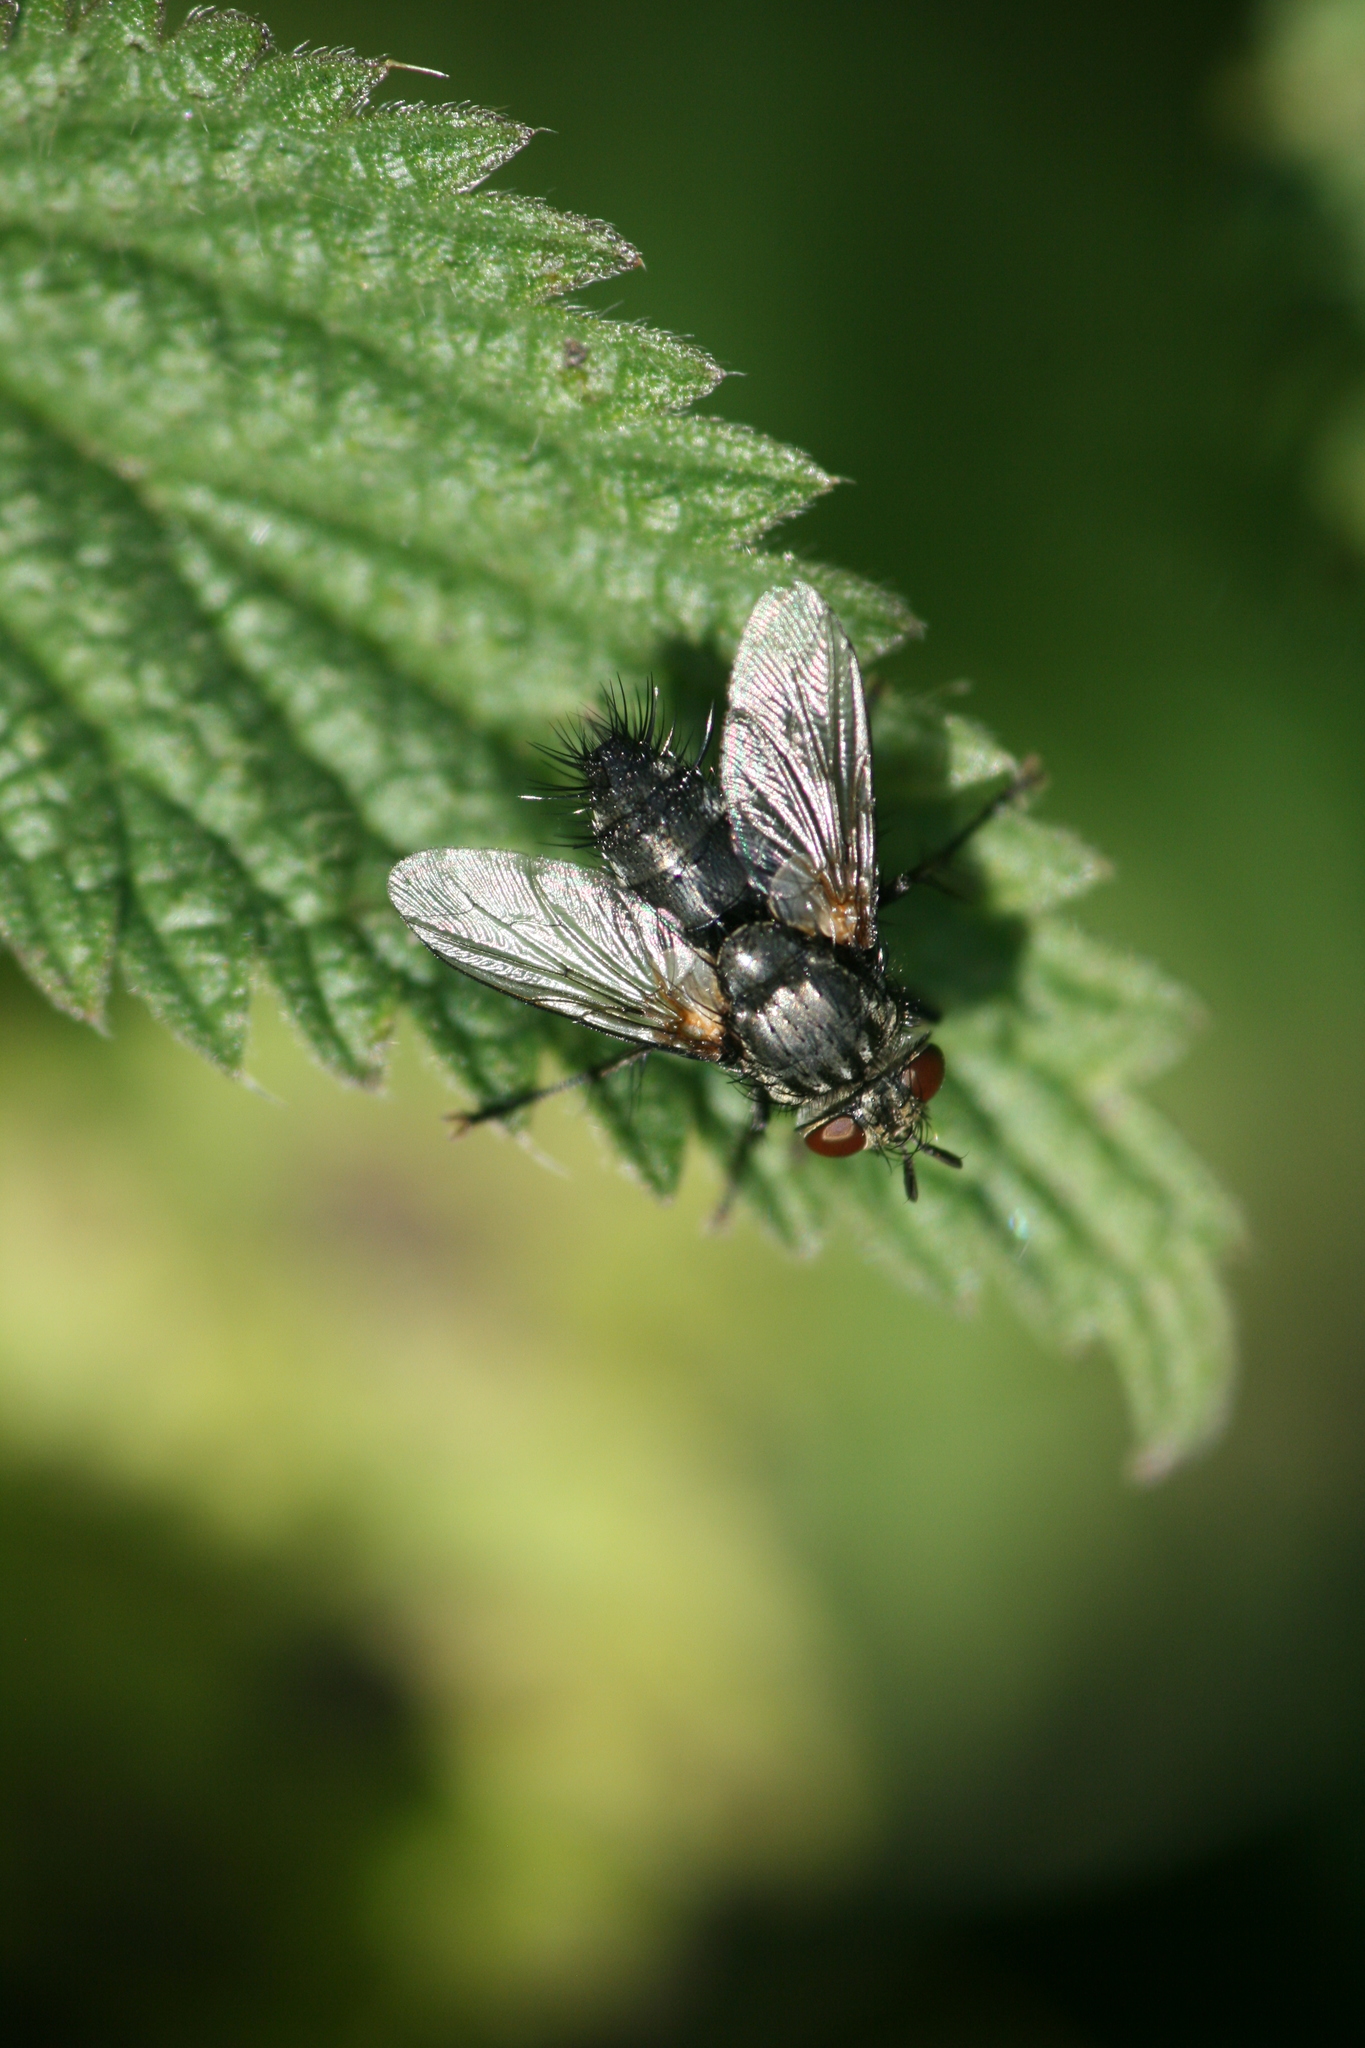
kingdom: Animalia
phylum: Arthropoda
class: Insecta
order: Diptera
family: Tachinidae
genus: Voria
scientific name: Voria ruralis
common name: Parasitic fly
